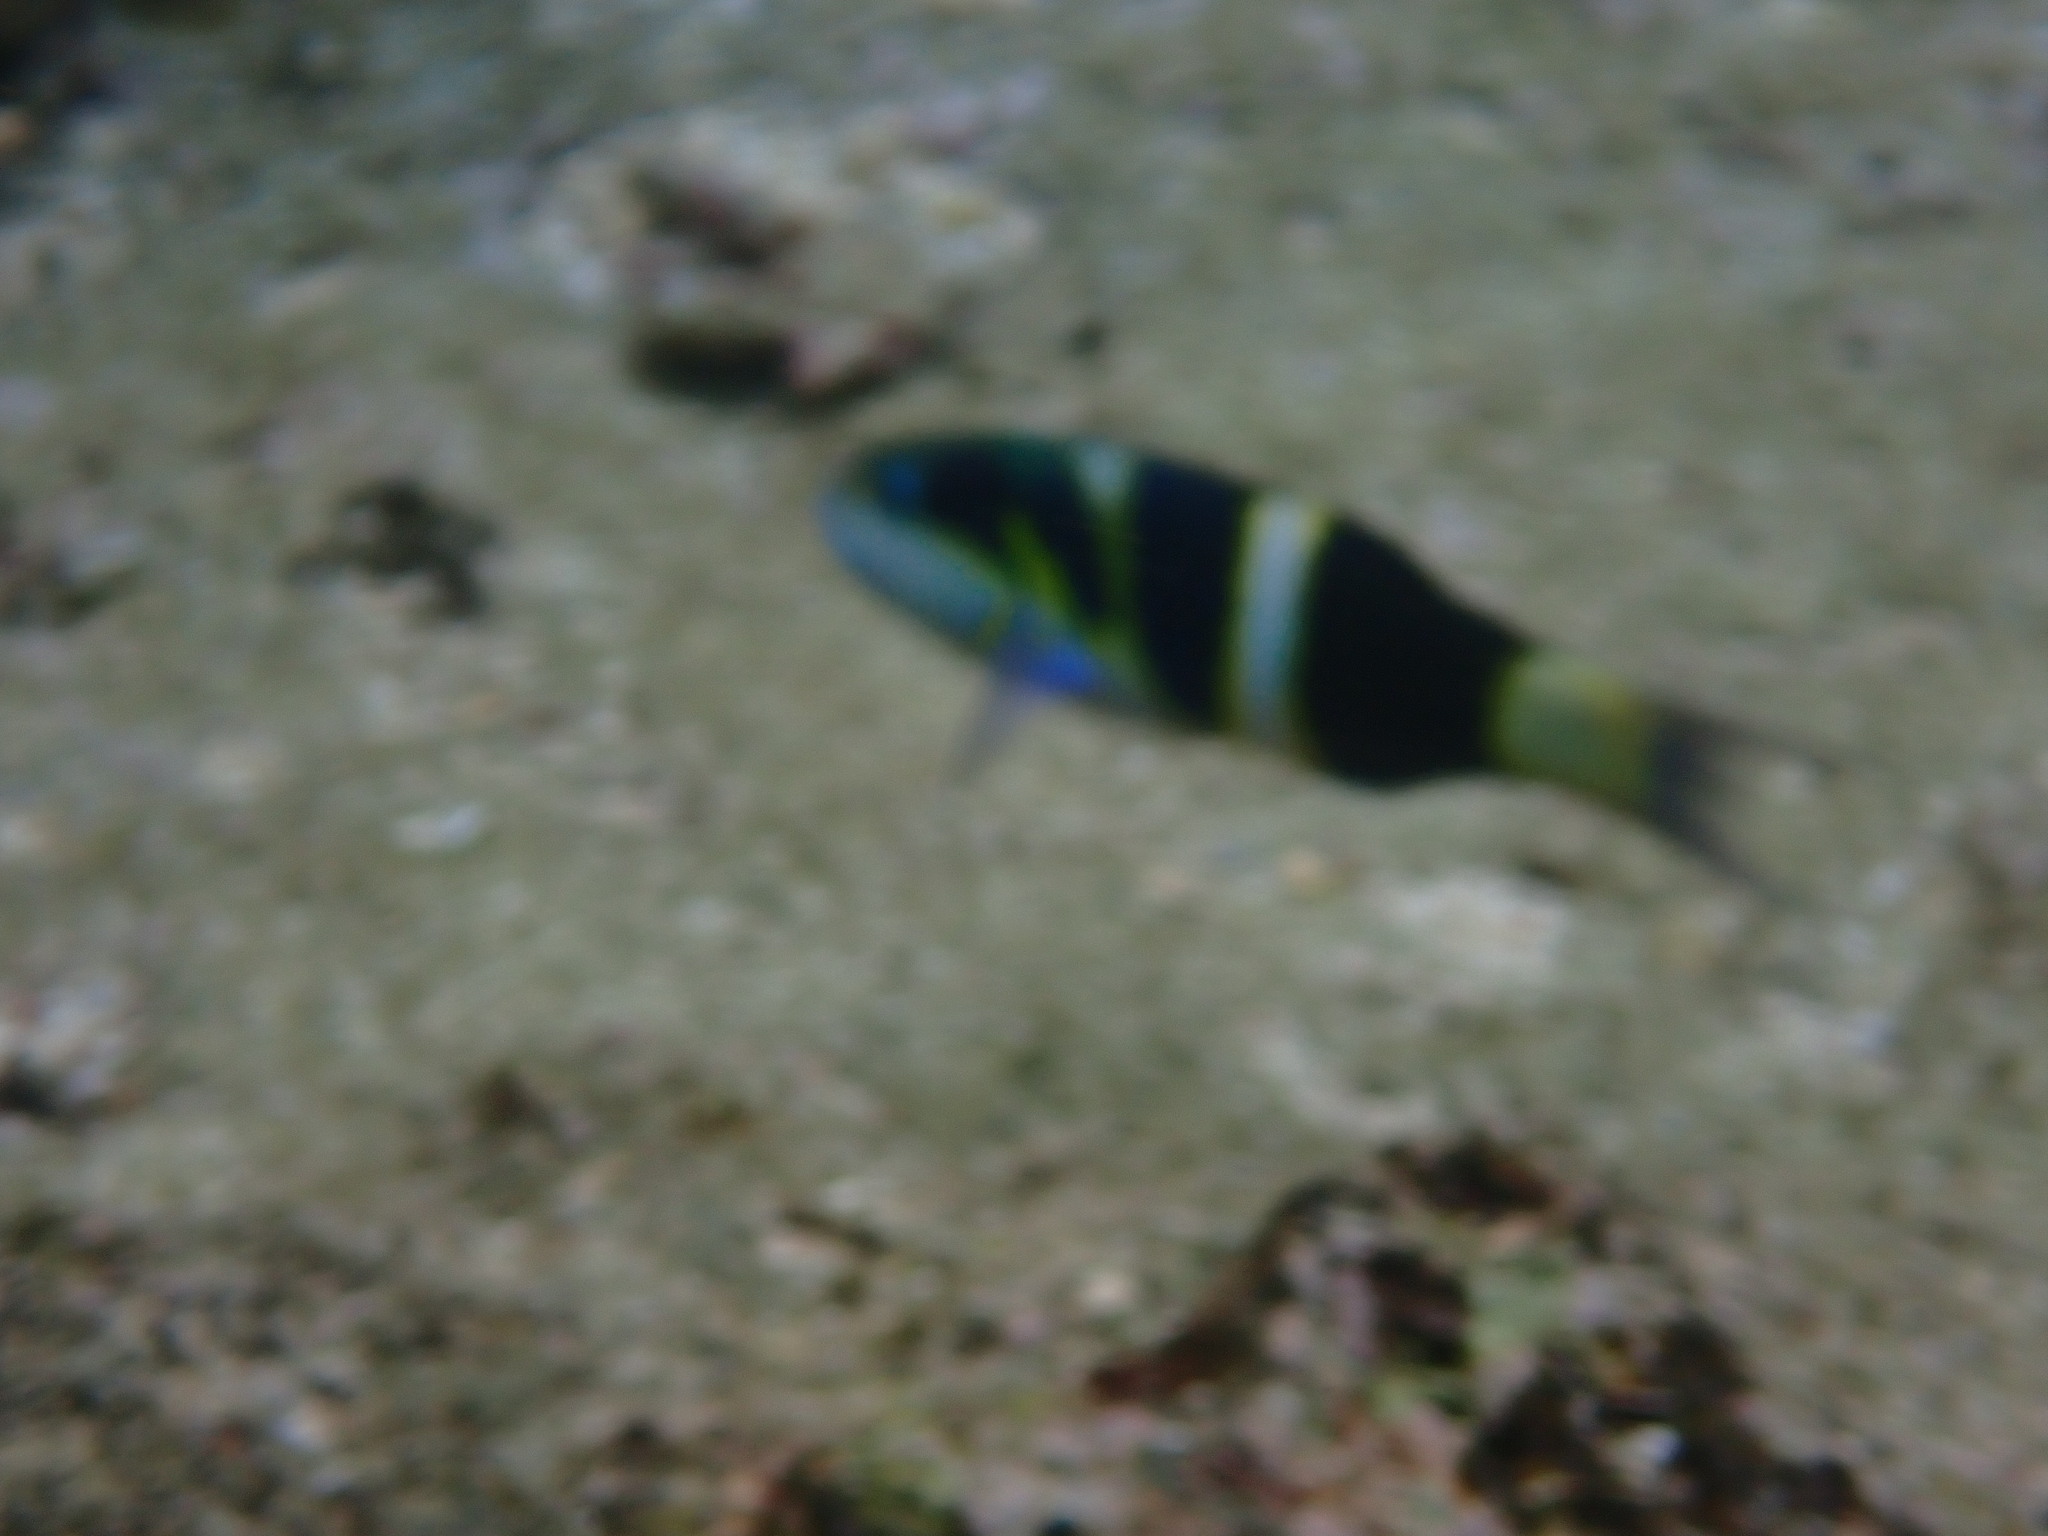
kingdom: Animalia
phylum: Chordata
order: Perciformes
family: Labridae
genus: Thalassoma
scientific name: Thalassoma nigrofasciatum
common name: Black-barred wrasse
